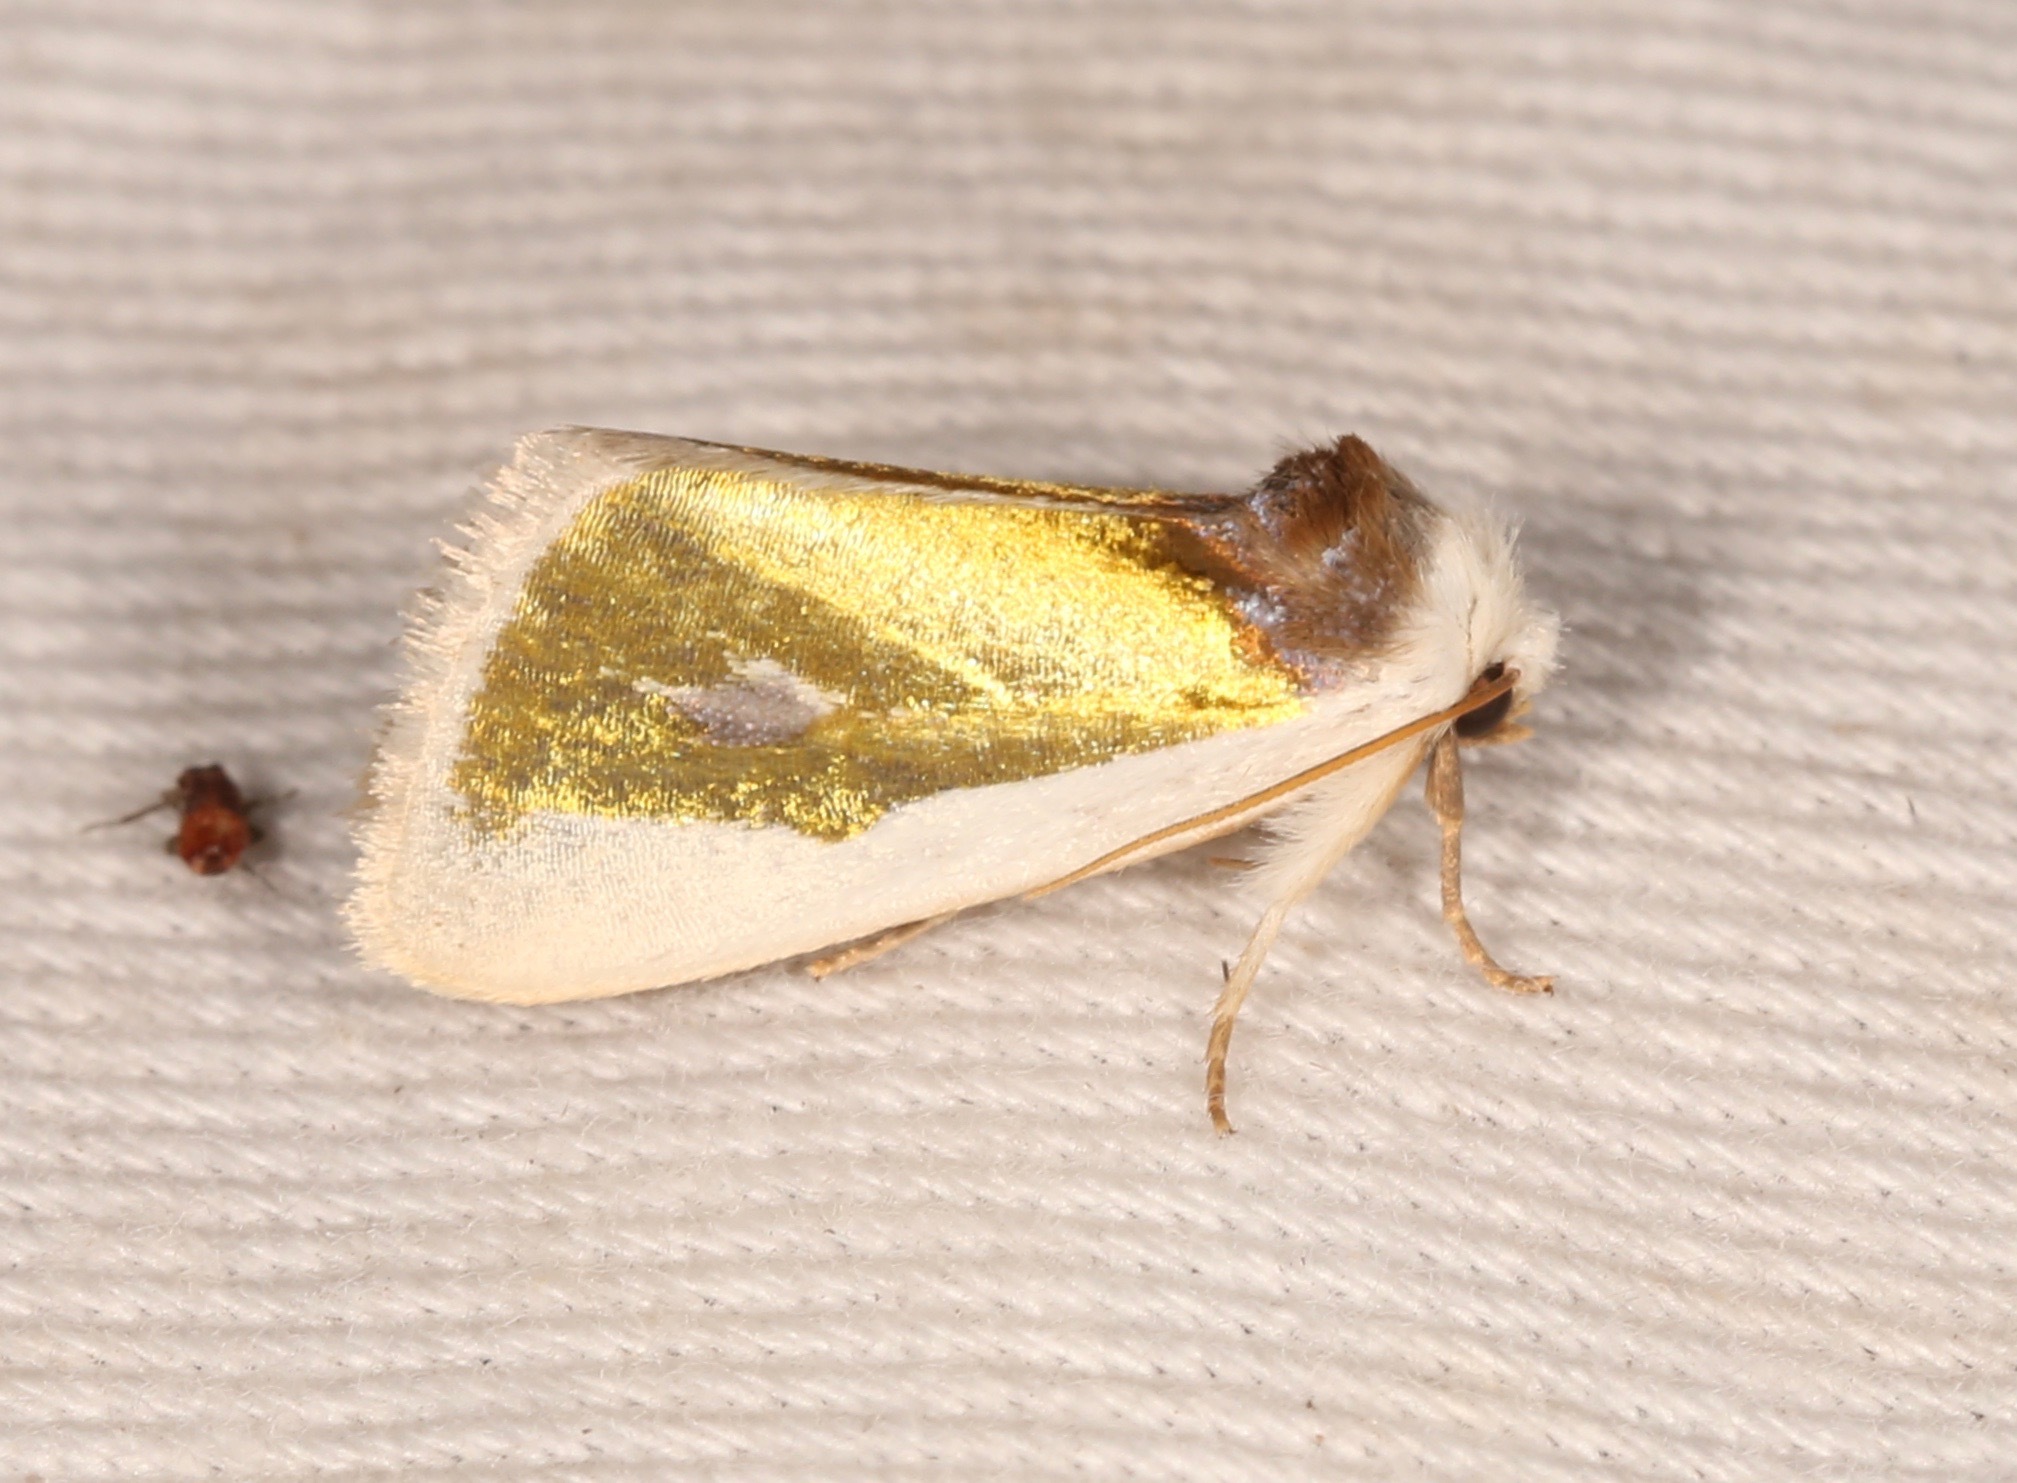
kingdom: Animalia
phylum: Arthropoda
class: Insecta
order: Lepidoptera
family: Noctuidae
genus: Neumoegenia
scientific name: Neumoegenia poetica
